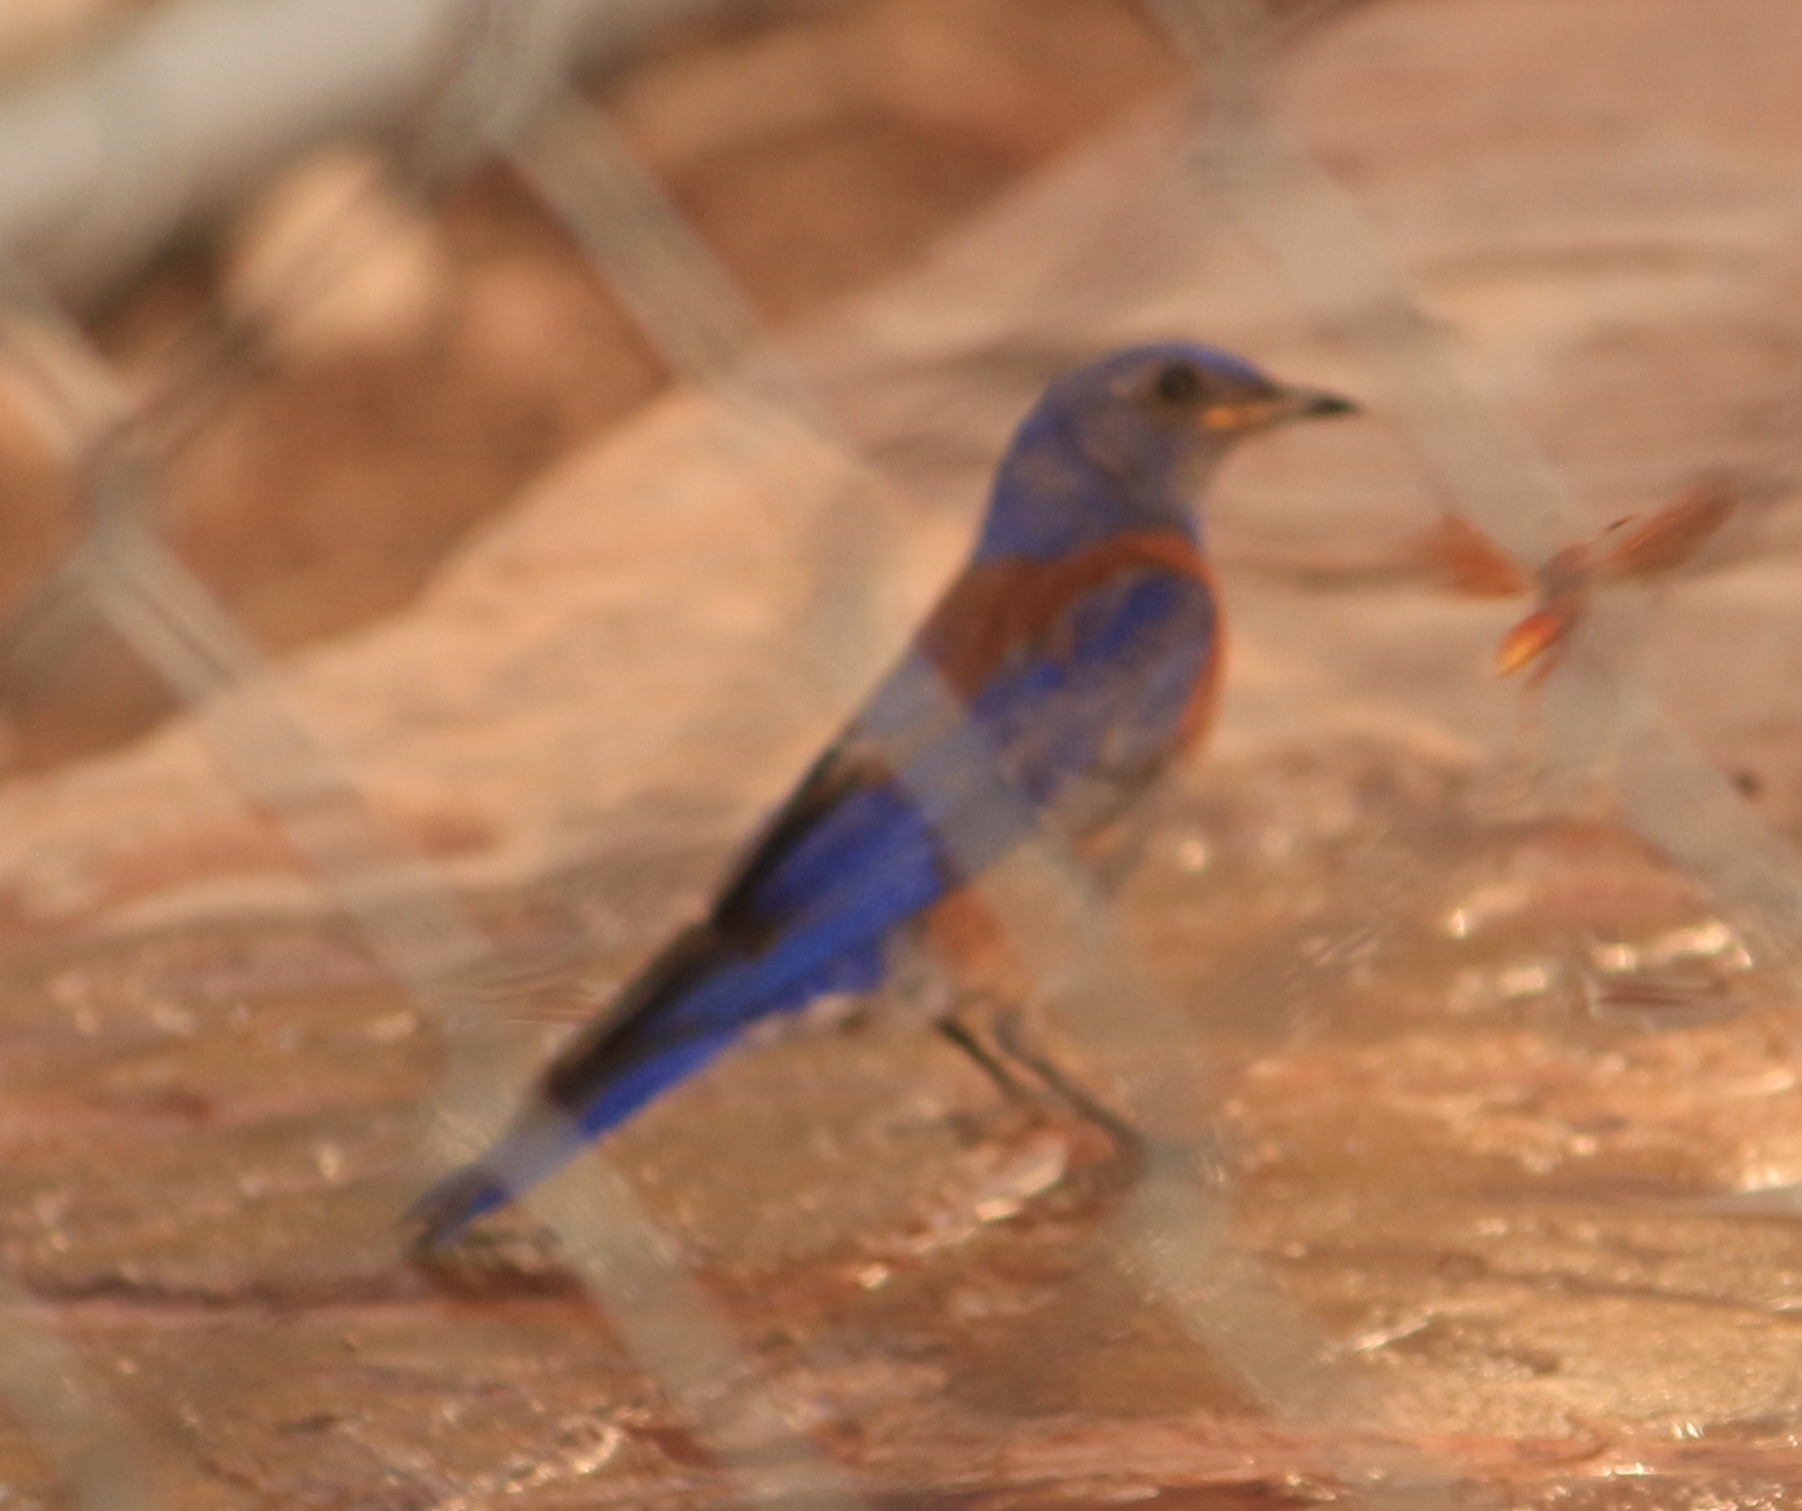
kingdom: Animalia
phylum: Chordata
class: Aves
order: Passeriformes
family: Turdidae
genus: Sialia
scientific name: Sialia mexicana
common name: Western bluebird
